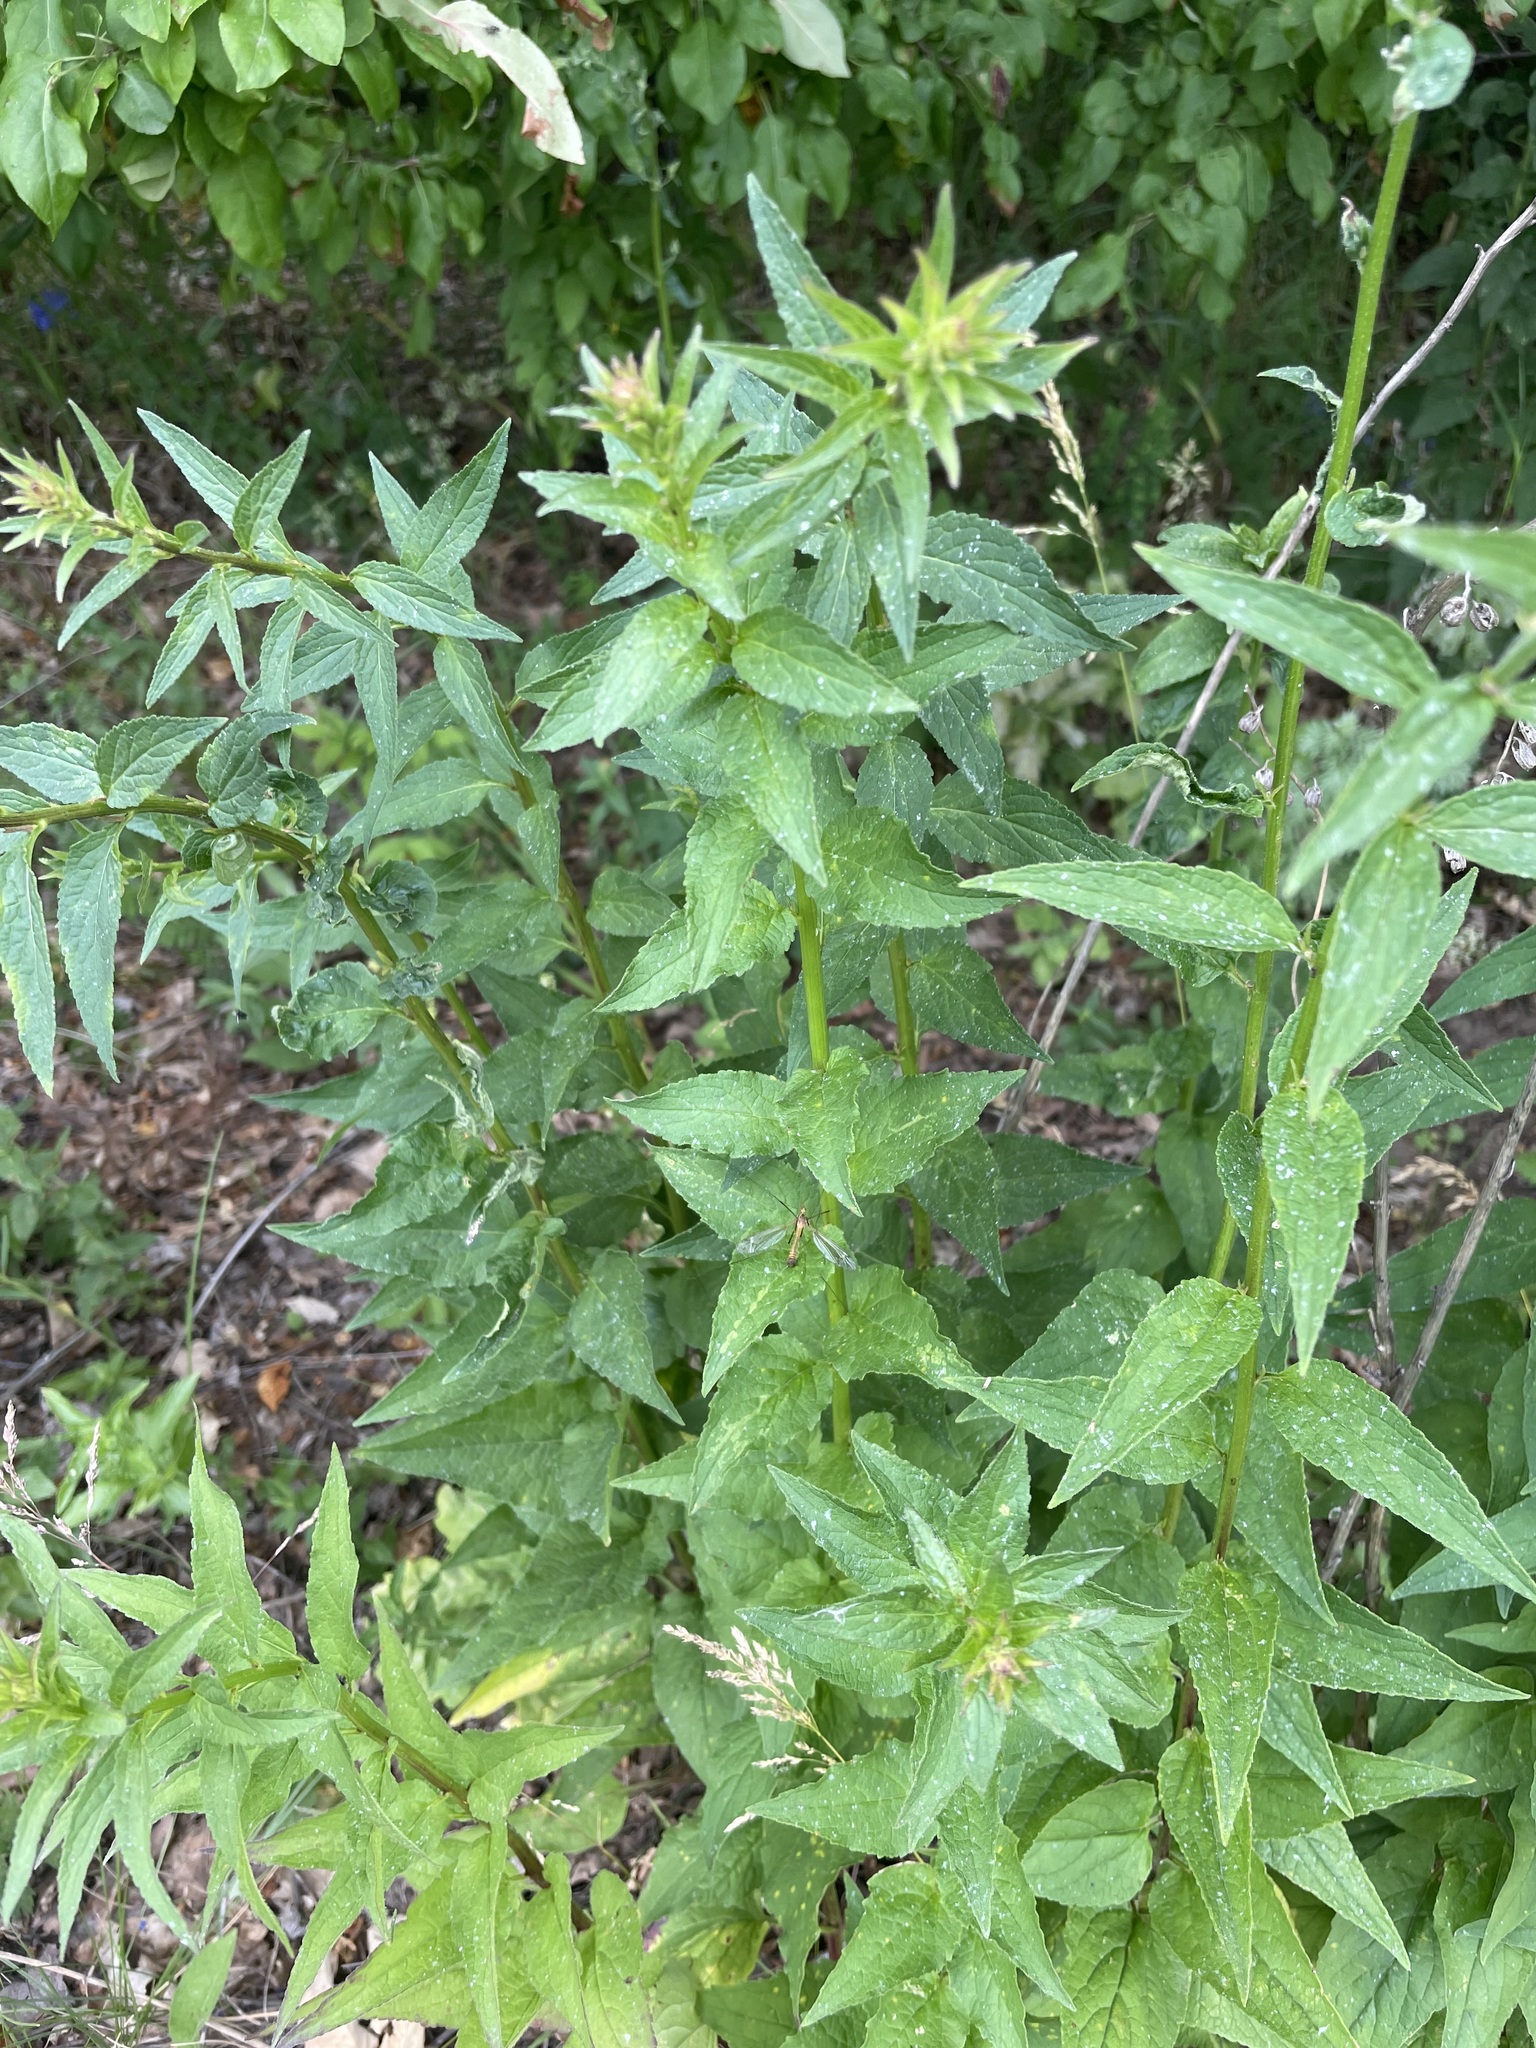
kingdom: Plantae
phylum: Tracheophyta
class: Magnoliopsida
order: Asterales
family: Campanulaceae
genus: Campanula
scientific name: Campanula rapunculoides
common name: Creeping bellflower
